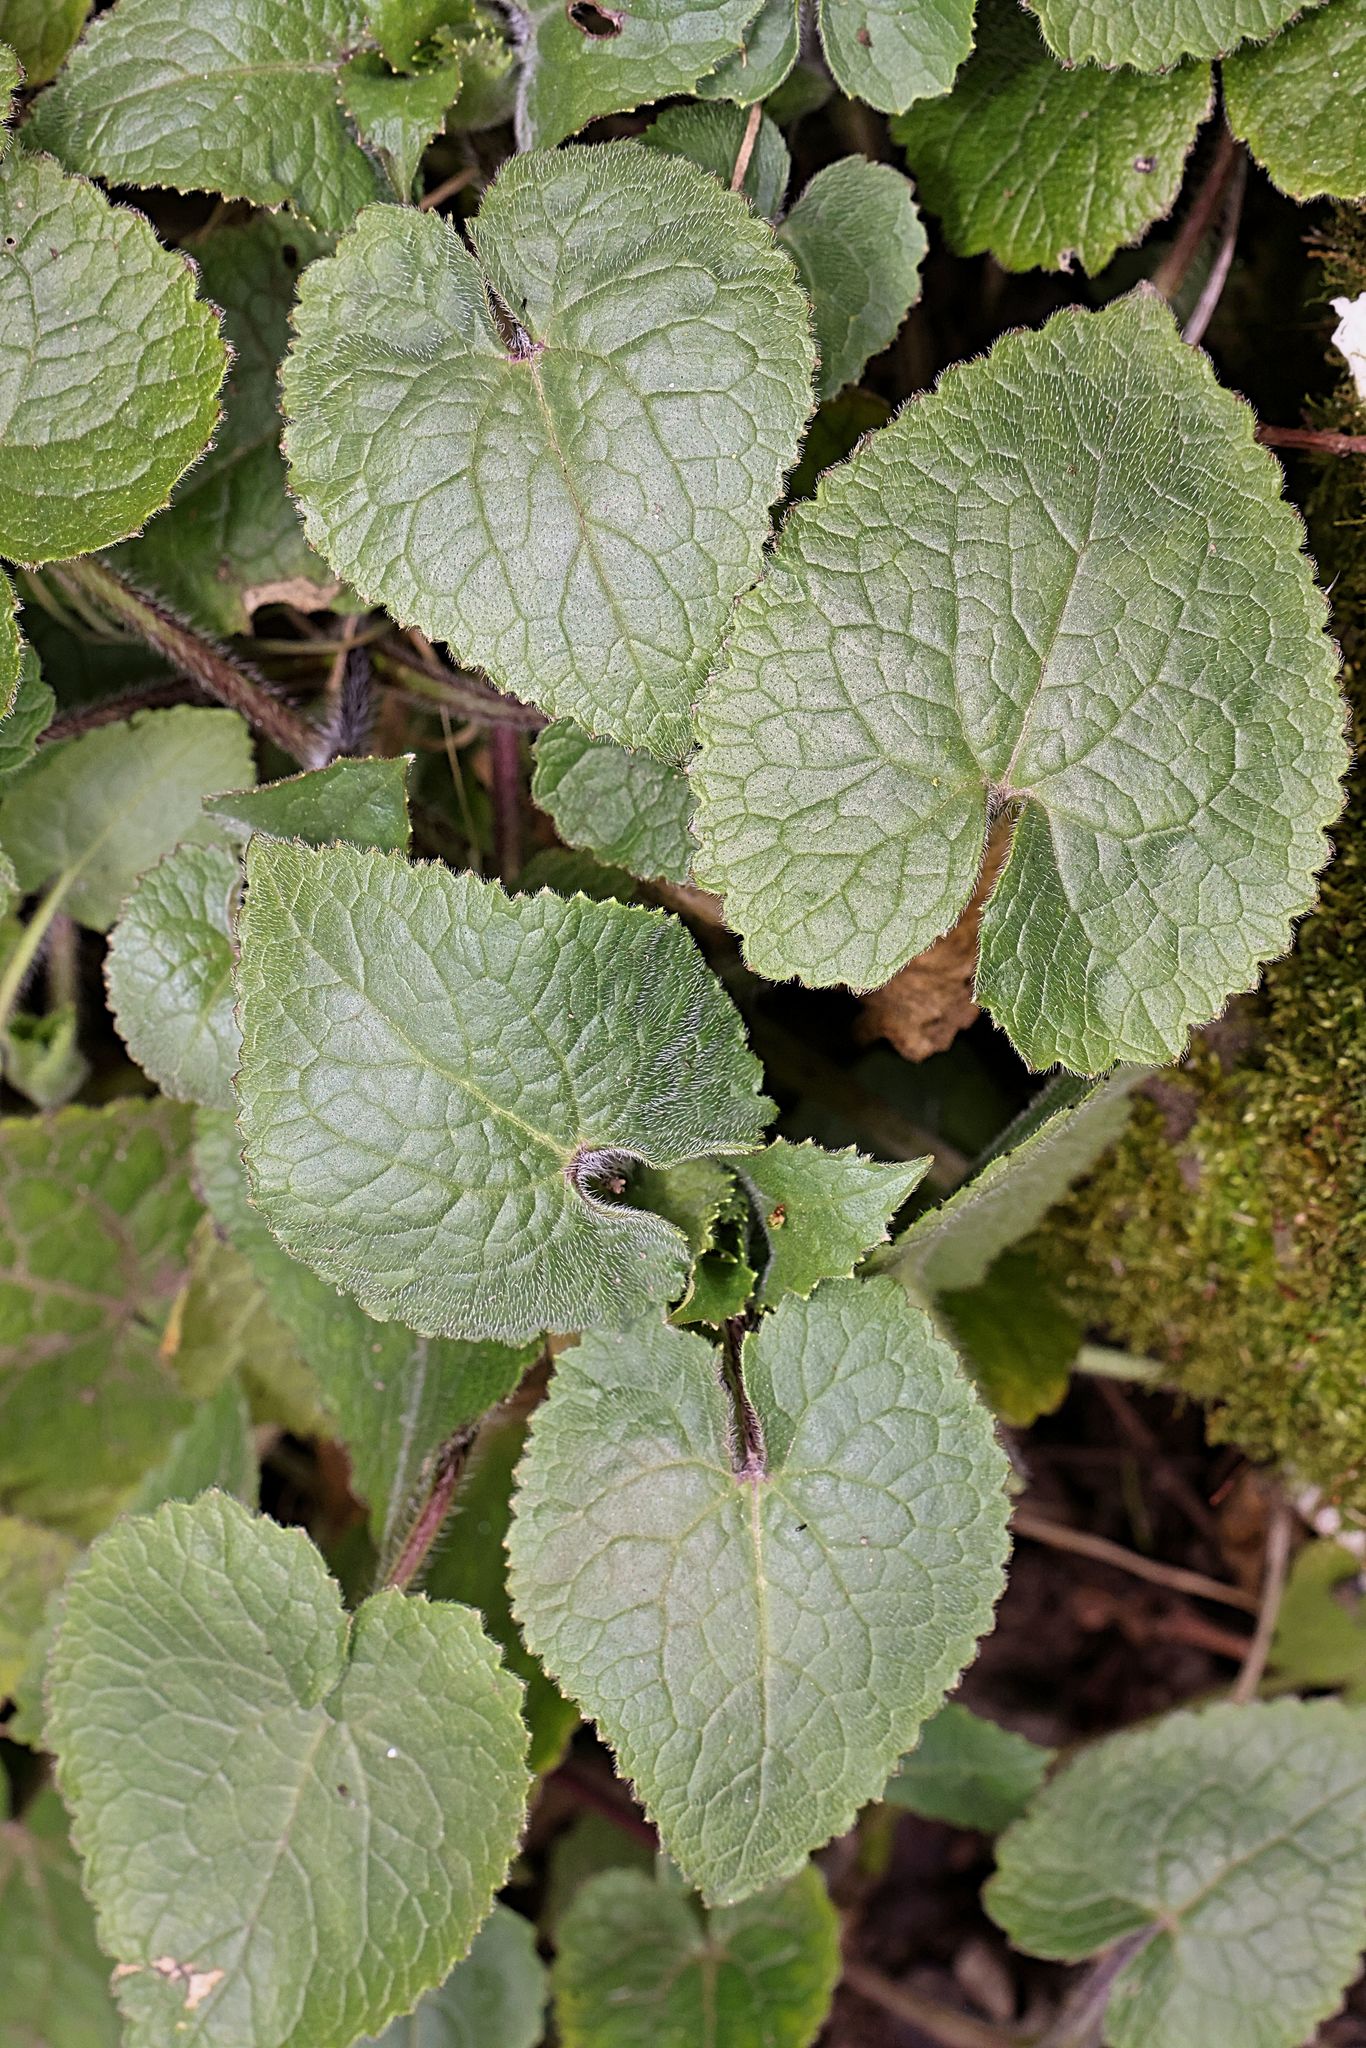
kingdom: Plantae
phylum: Tracheophyta
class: Magnoliopsida
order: Brassicales
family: Brassicaceae
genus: Lunaria
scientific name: Lunaria annua
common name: Honesty
